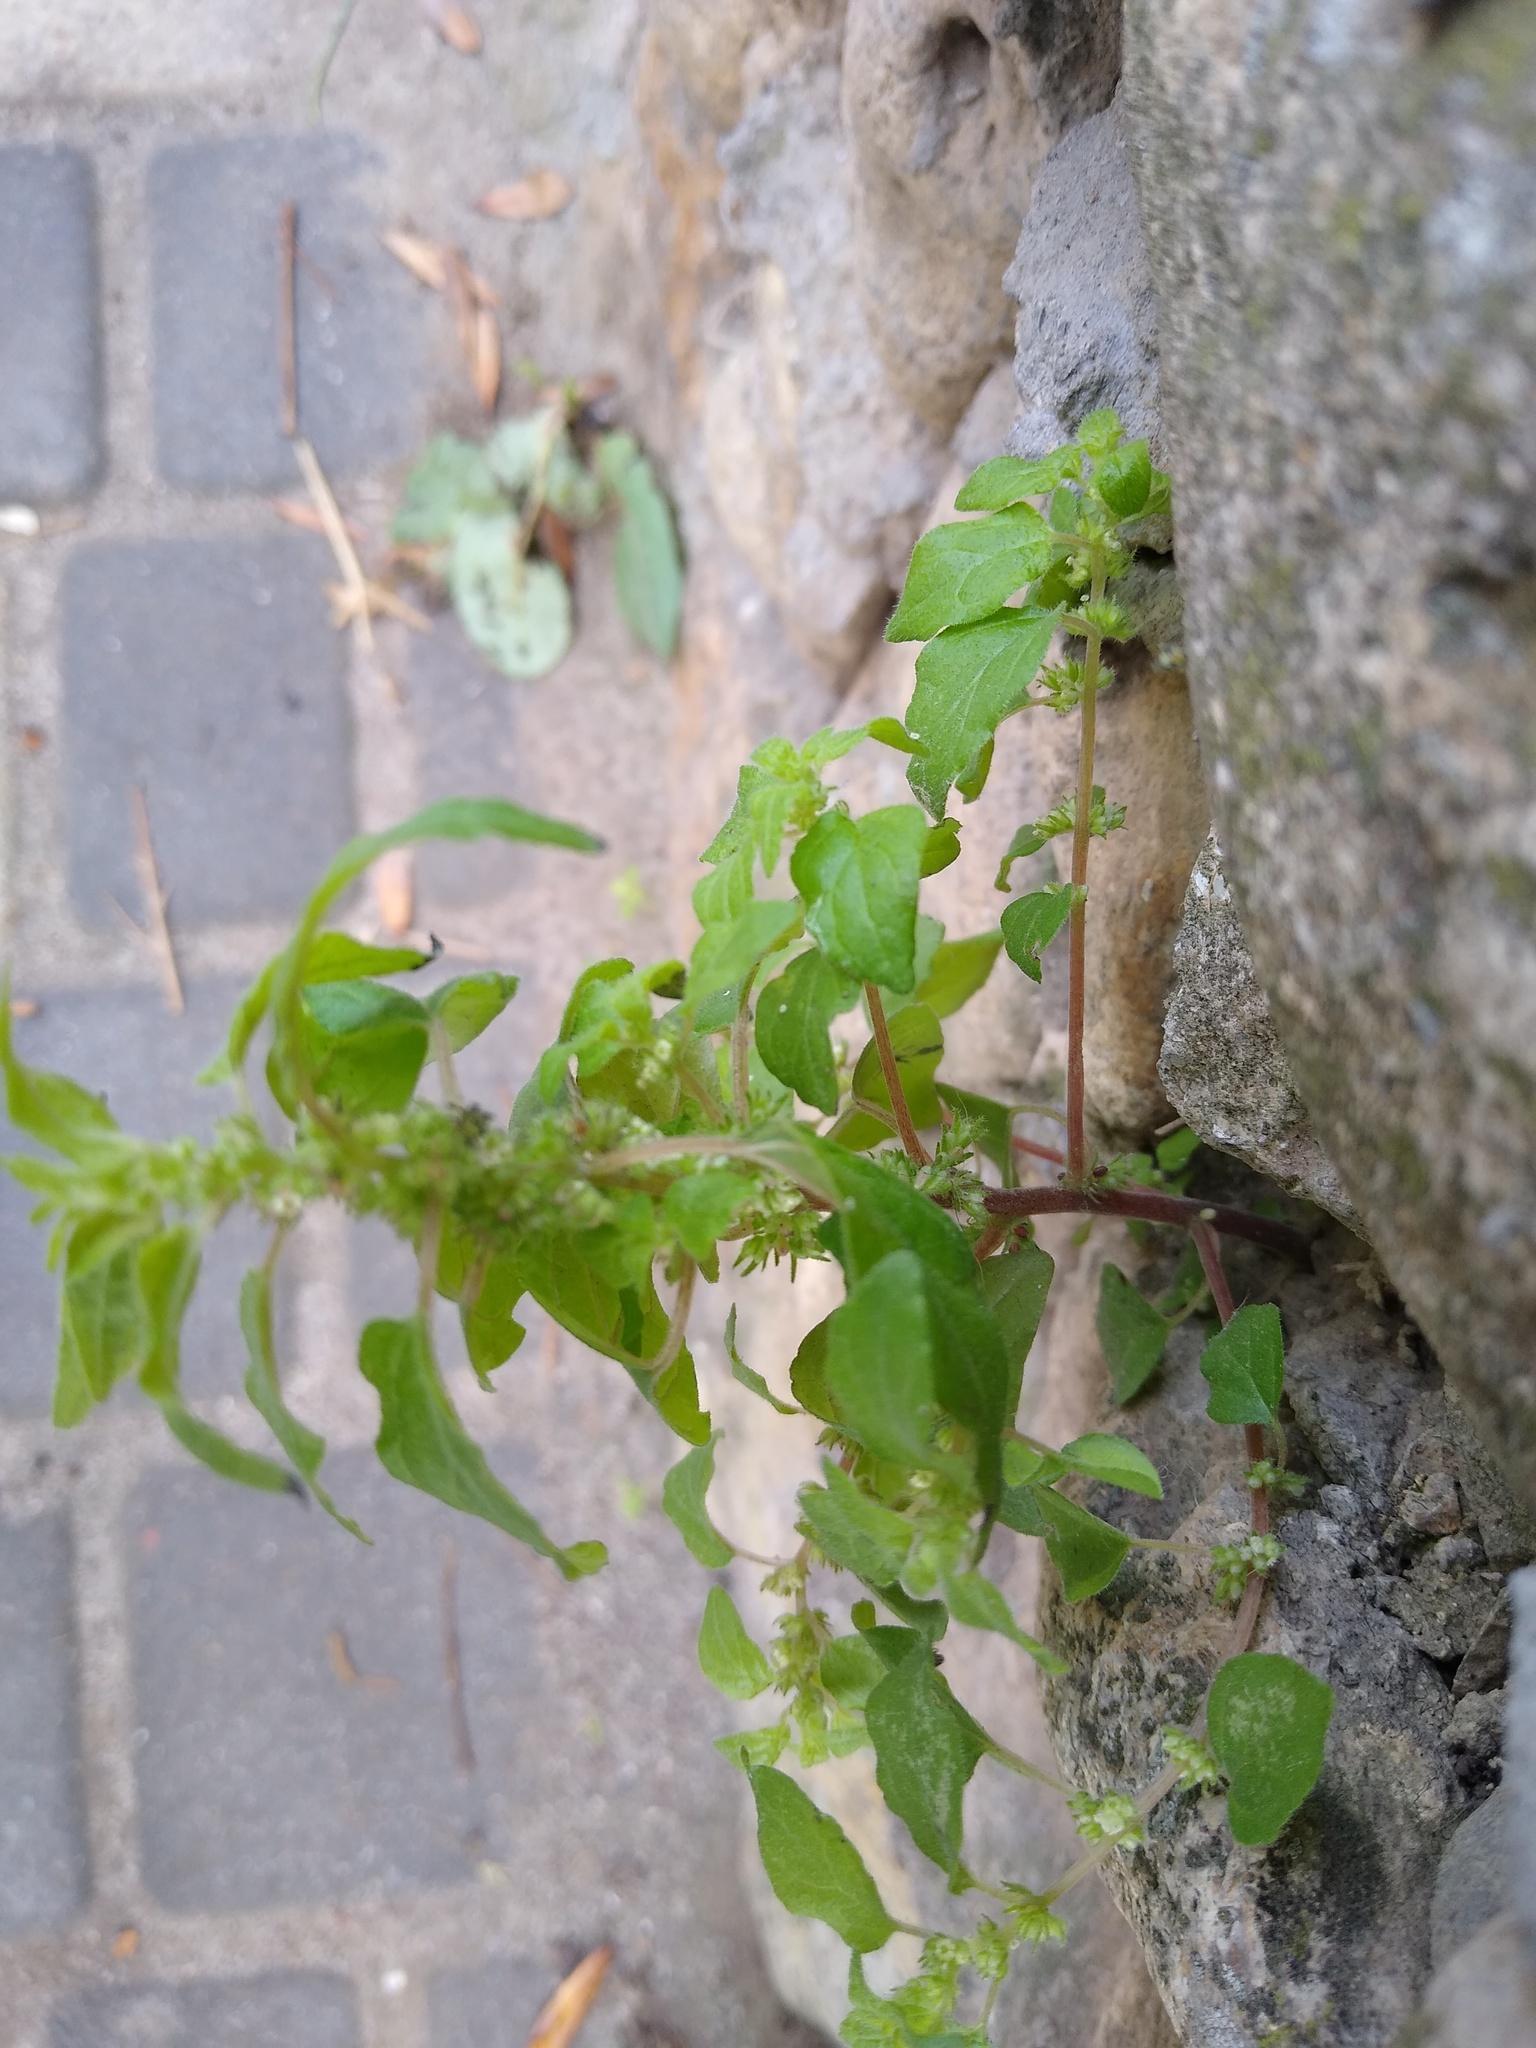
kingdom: Plantae
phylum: Tracheophyta
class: Magnoliopsida
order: Rosales
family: Urticaceae
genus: Parietaria
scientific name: Parietaria judaica
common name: Pellitory-of-the-wall
